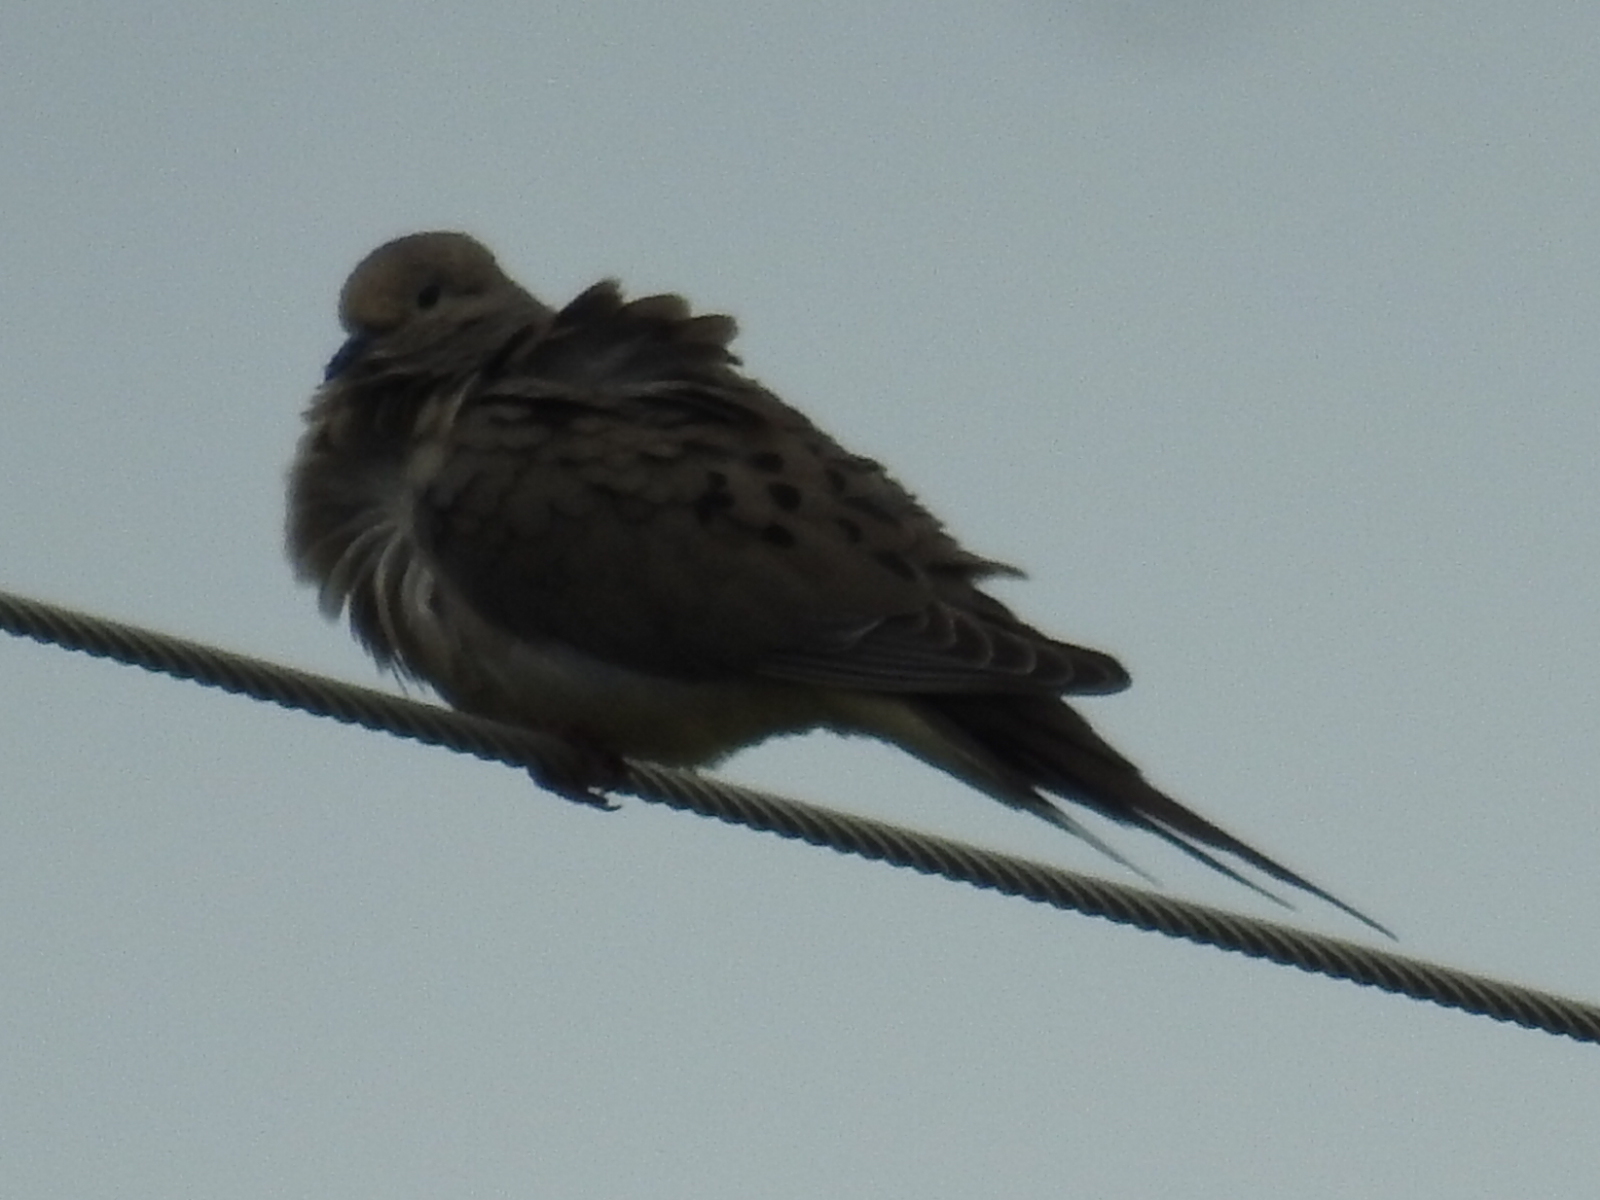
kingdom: Animalia
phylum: Chordata
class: Aves
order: Columbiformes
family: Columbidae
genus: Zenaida
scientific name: Zenaida macroura
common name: Mourning dove
